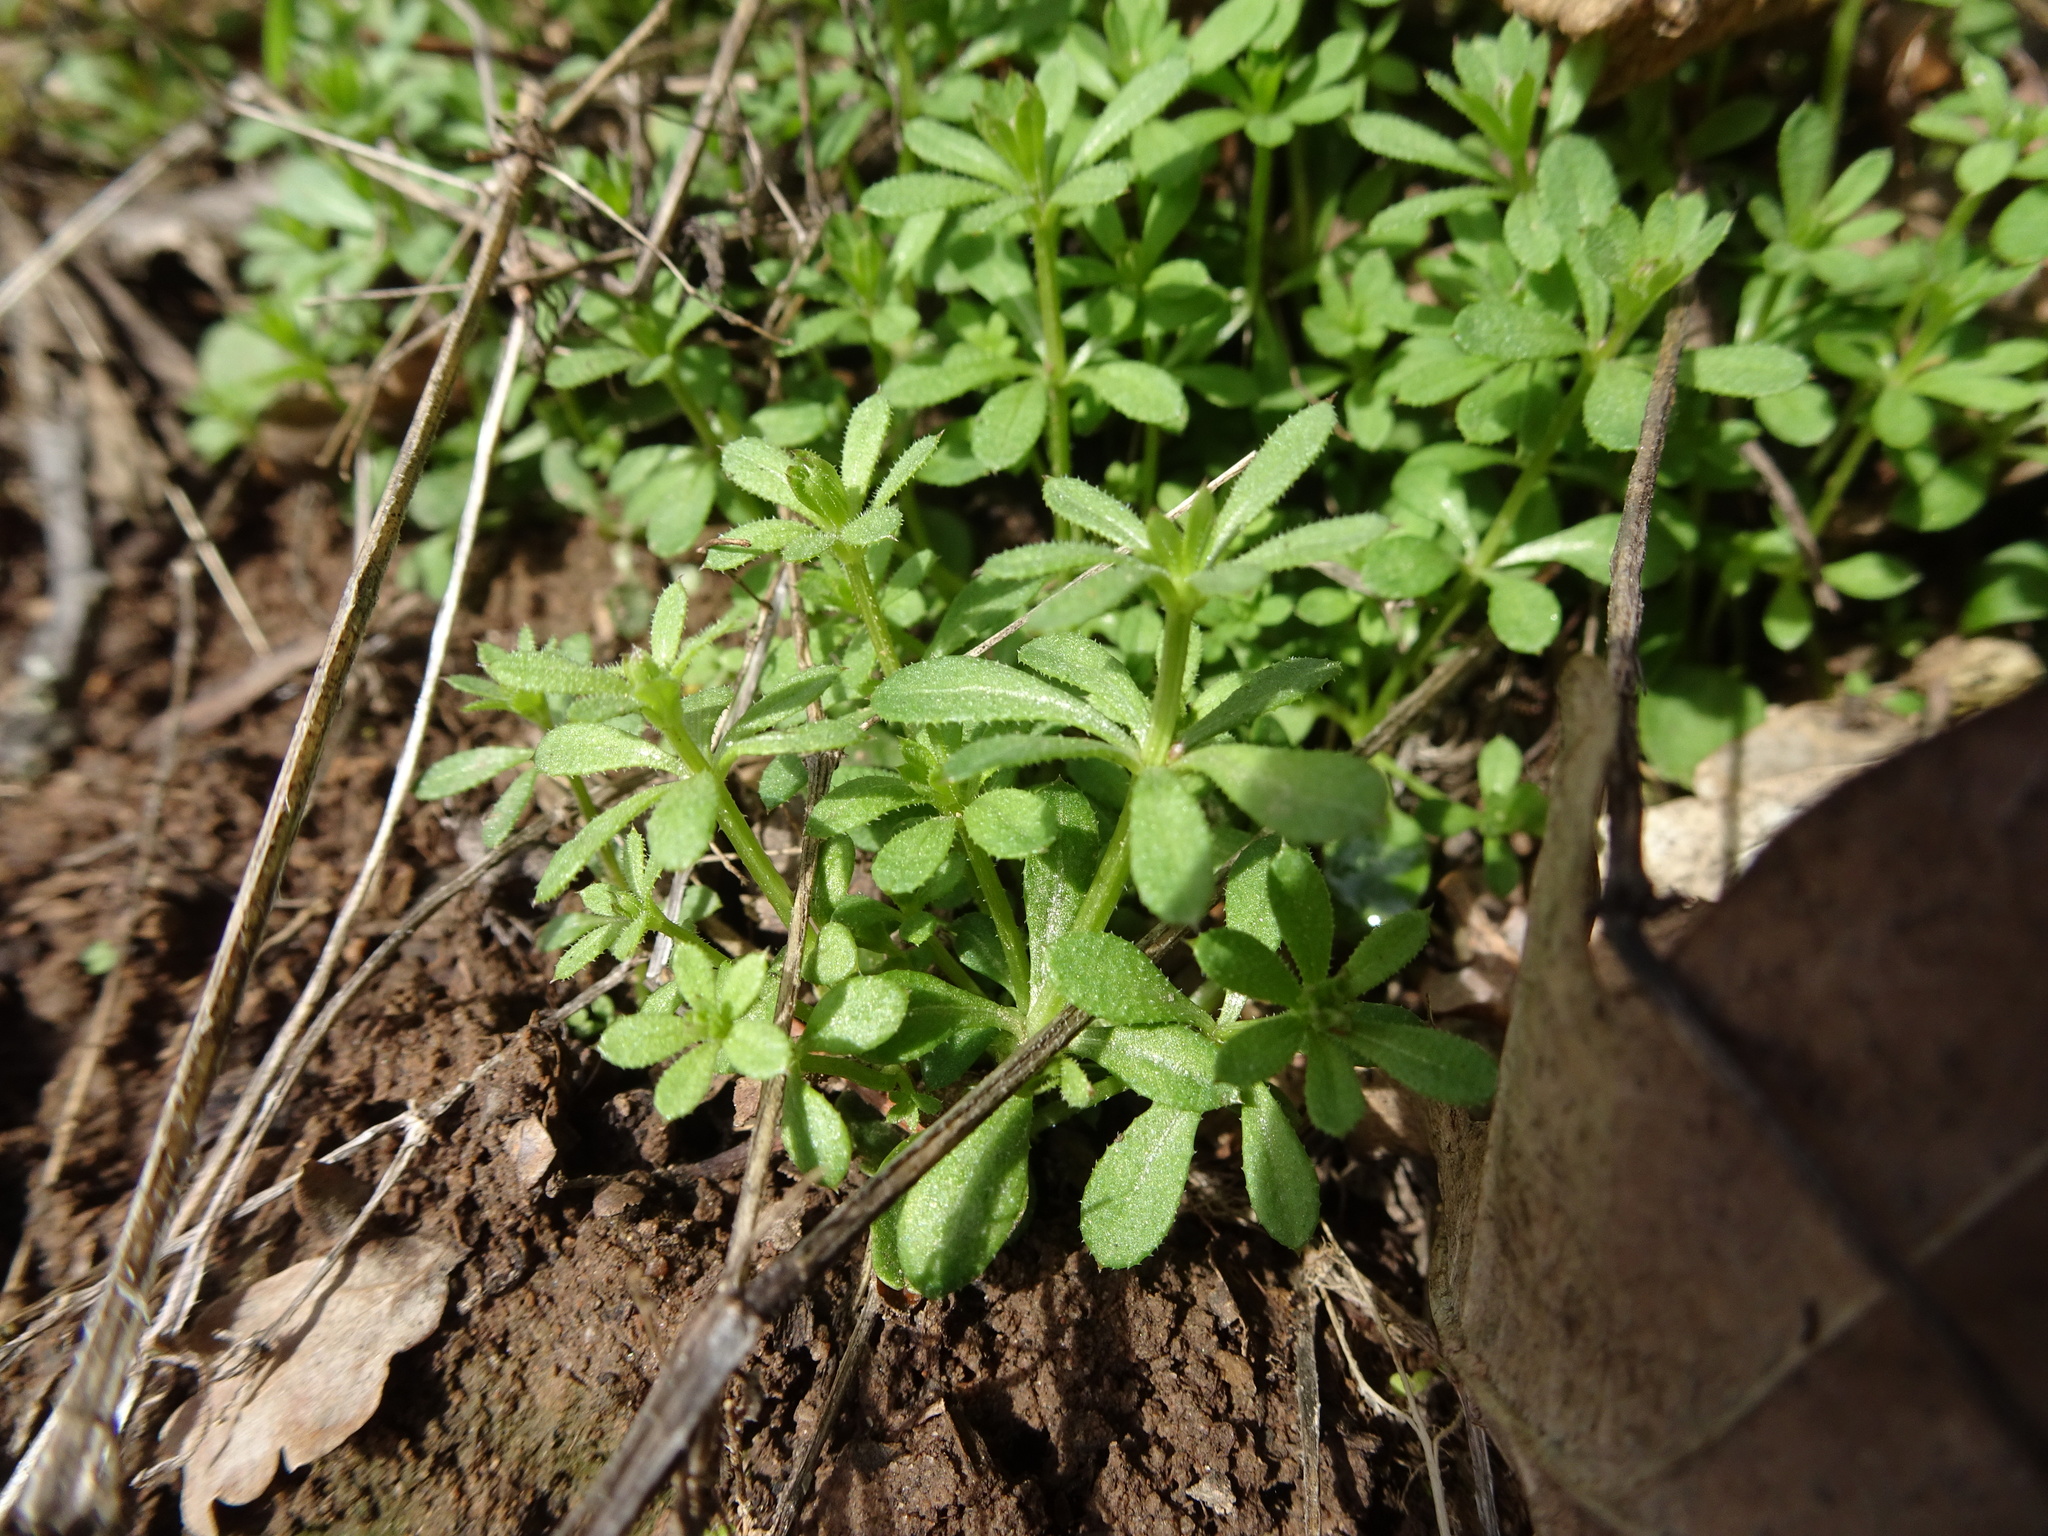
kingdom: Plantae
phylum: Tracheophyta
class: Magnoliopsida
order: Gentianales
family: Rubiaceae
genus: Galium
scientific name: Galium aparine
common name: Cleavers
